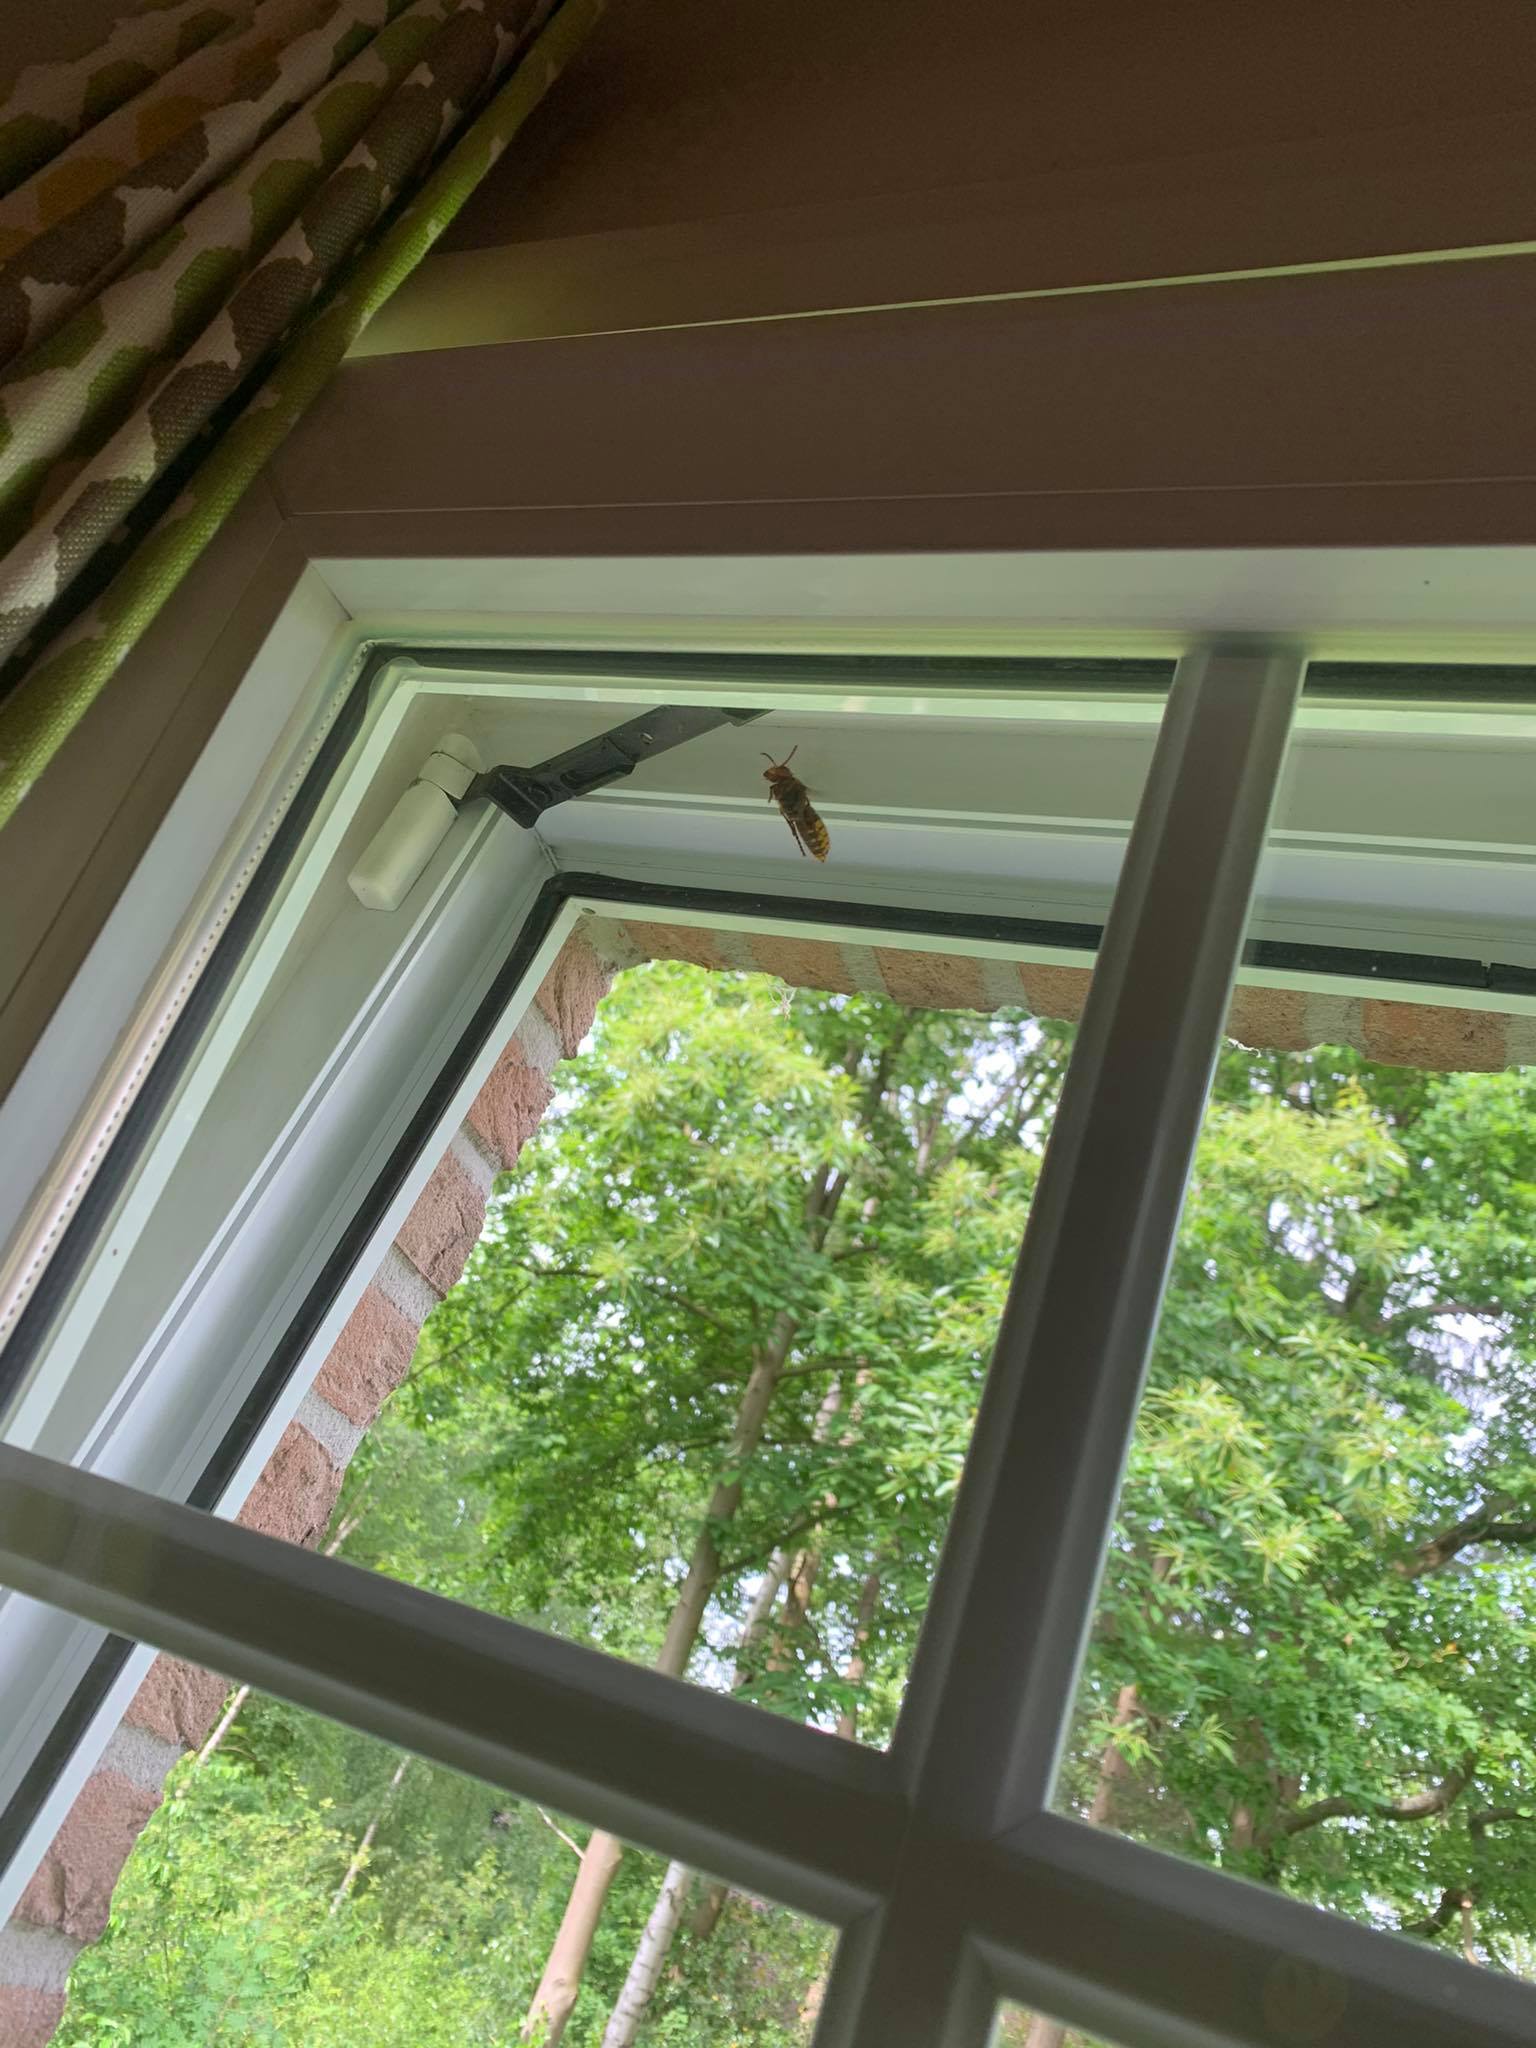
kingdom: Animalia
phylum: Arthropoda
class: Insecta
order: Hymenoptera
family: Vespidae
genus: Vespa
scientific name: Vespa crabro
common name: Hornet
